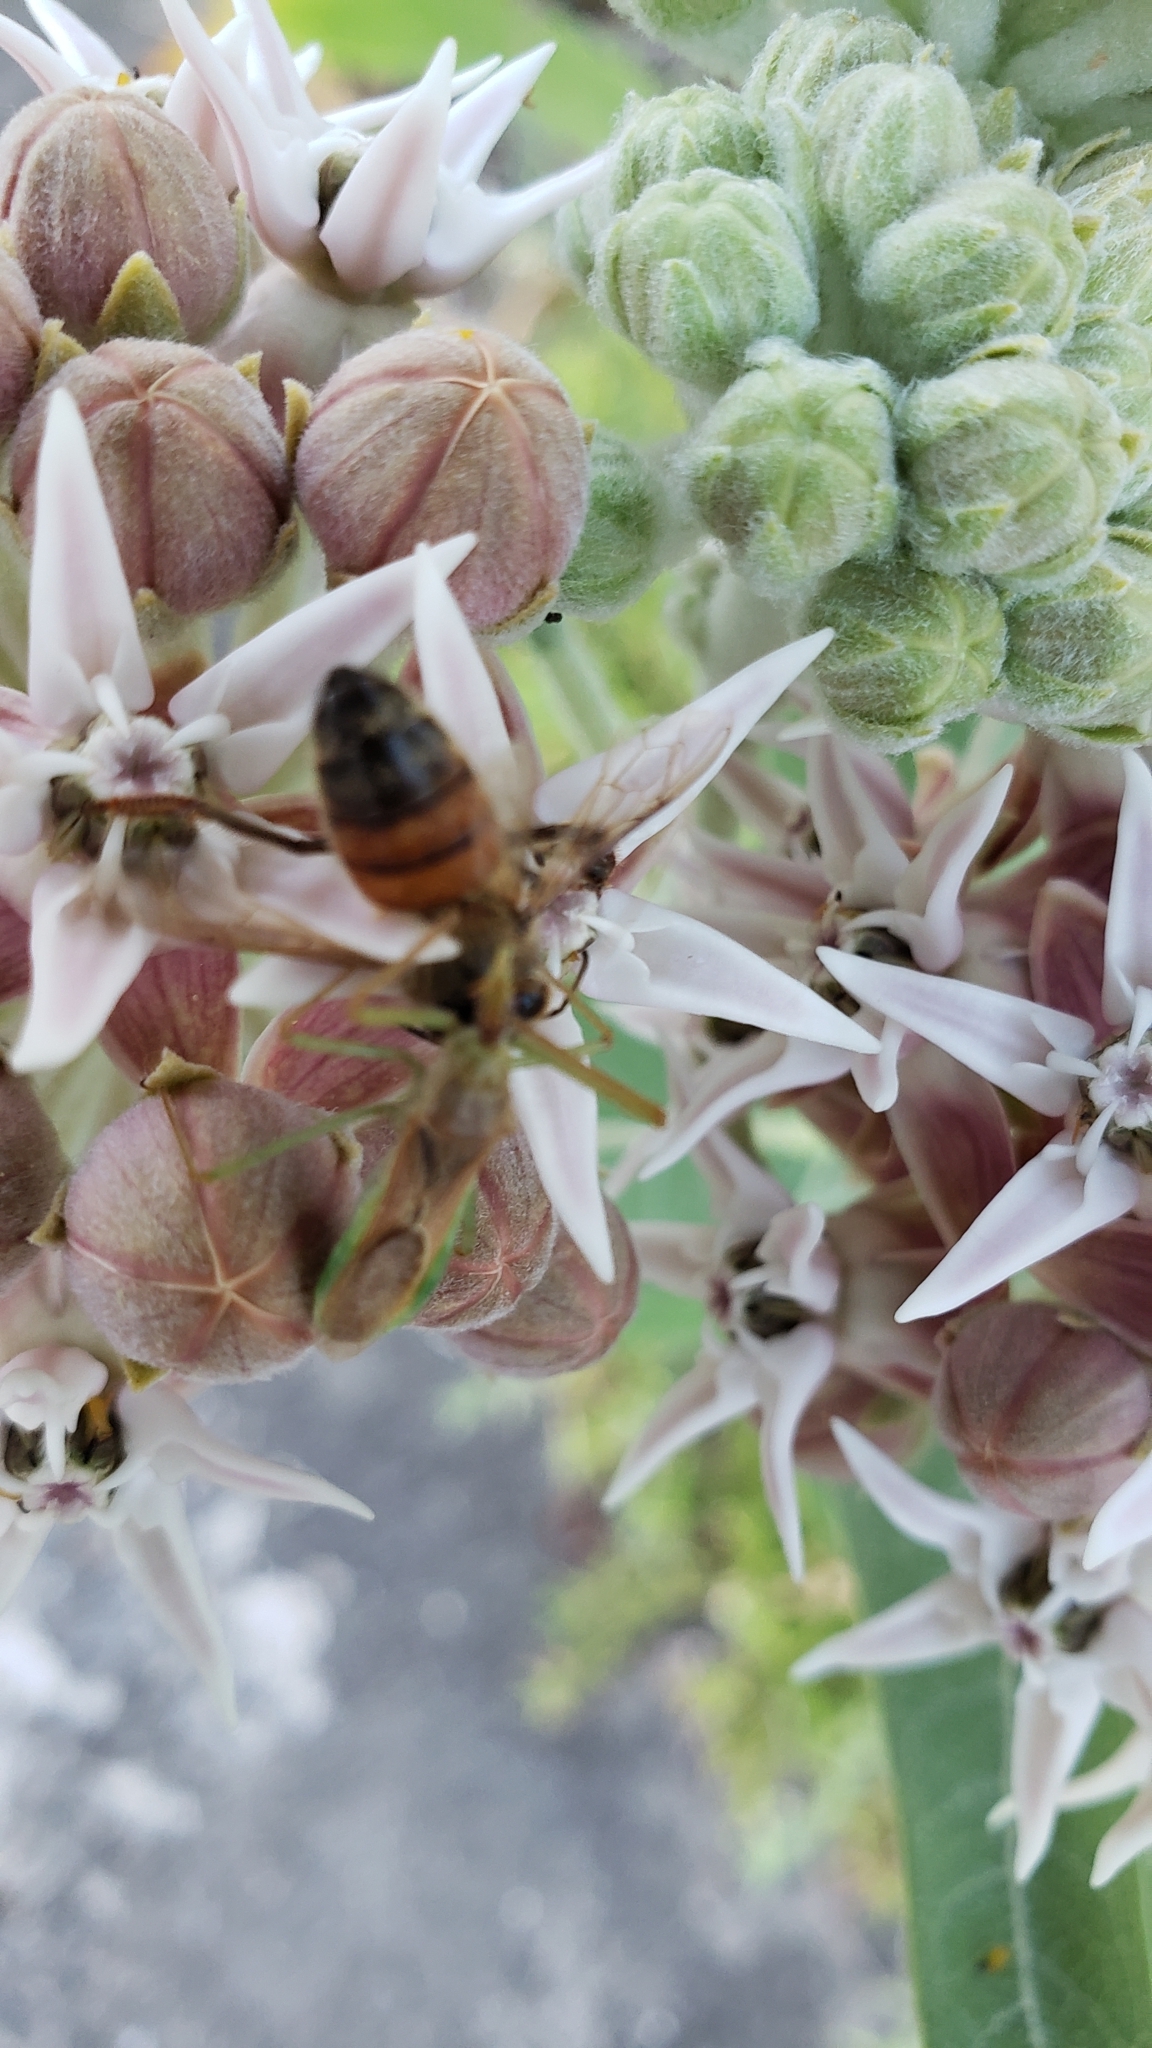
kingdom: Animalia
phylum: Arthropoda
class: Insecta
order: Hemiptera
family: Reduviidae
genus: Zelus
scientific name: Zelus renardii
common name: Assassin bug
